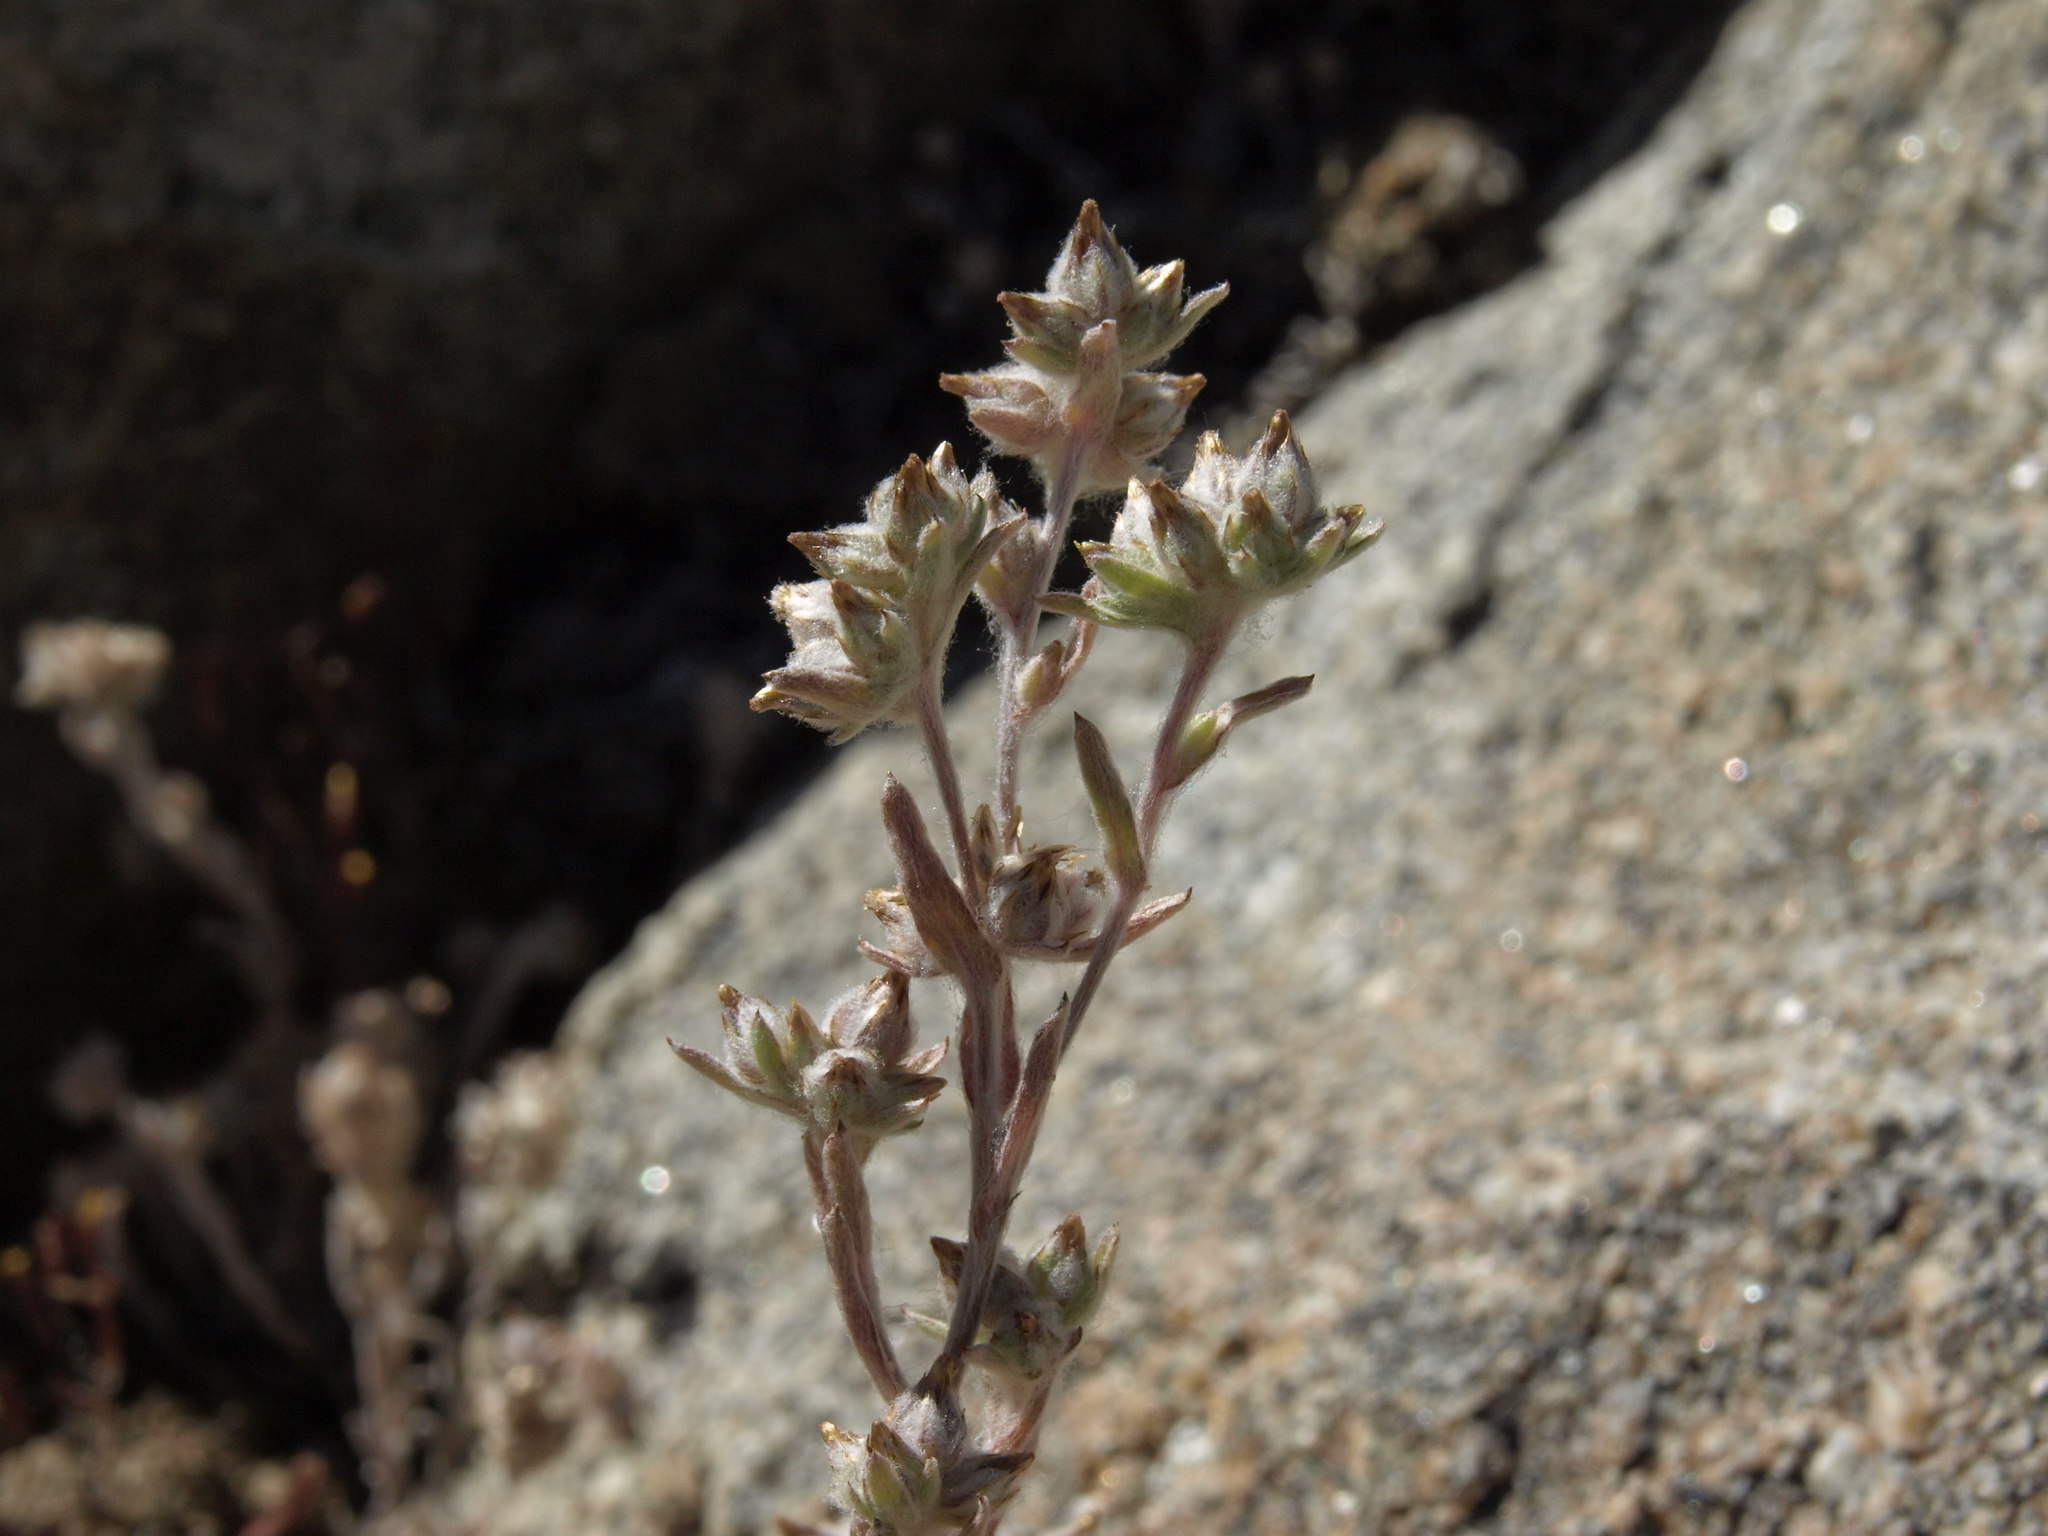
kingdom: Plantae
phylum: Tracheophyta
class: Magnoliopsida
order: Asterales
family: Asteraceae
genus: Logfia
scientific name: Logfia californica
